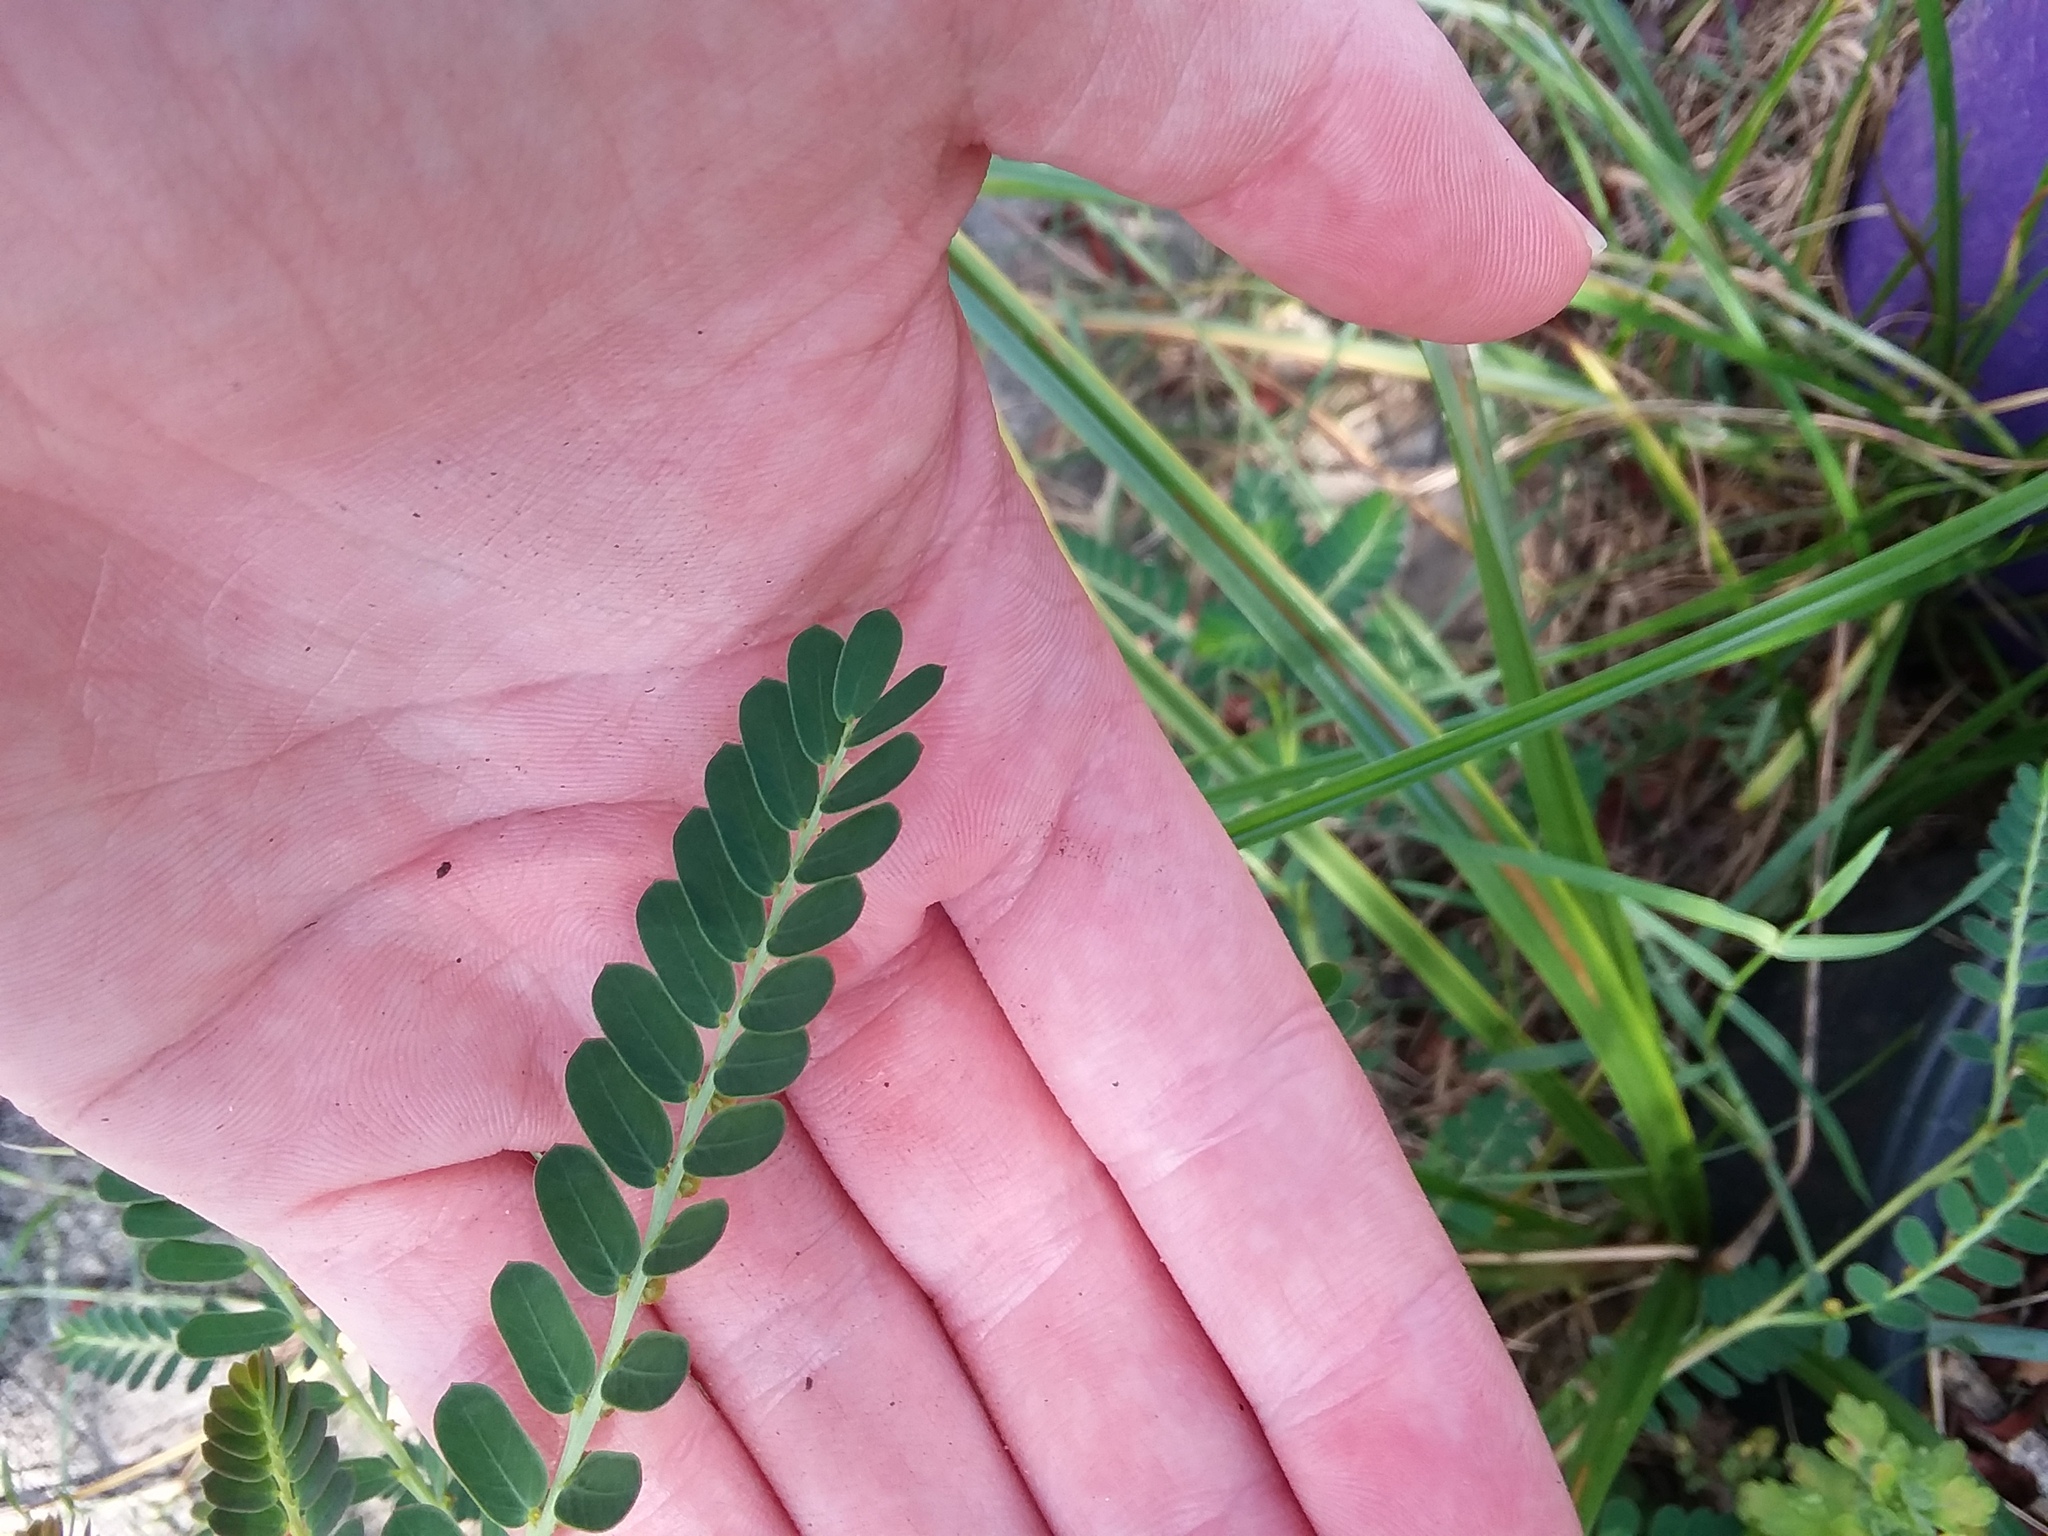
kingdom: Plantae
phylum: Tracheophyta
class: Magnoliopsida
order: Malpighiales
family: Phyllanthaceae
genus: Phyllanthus
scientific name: Phyllanthus urinaria
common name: Chamber bitter
